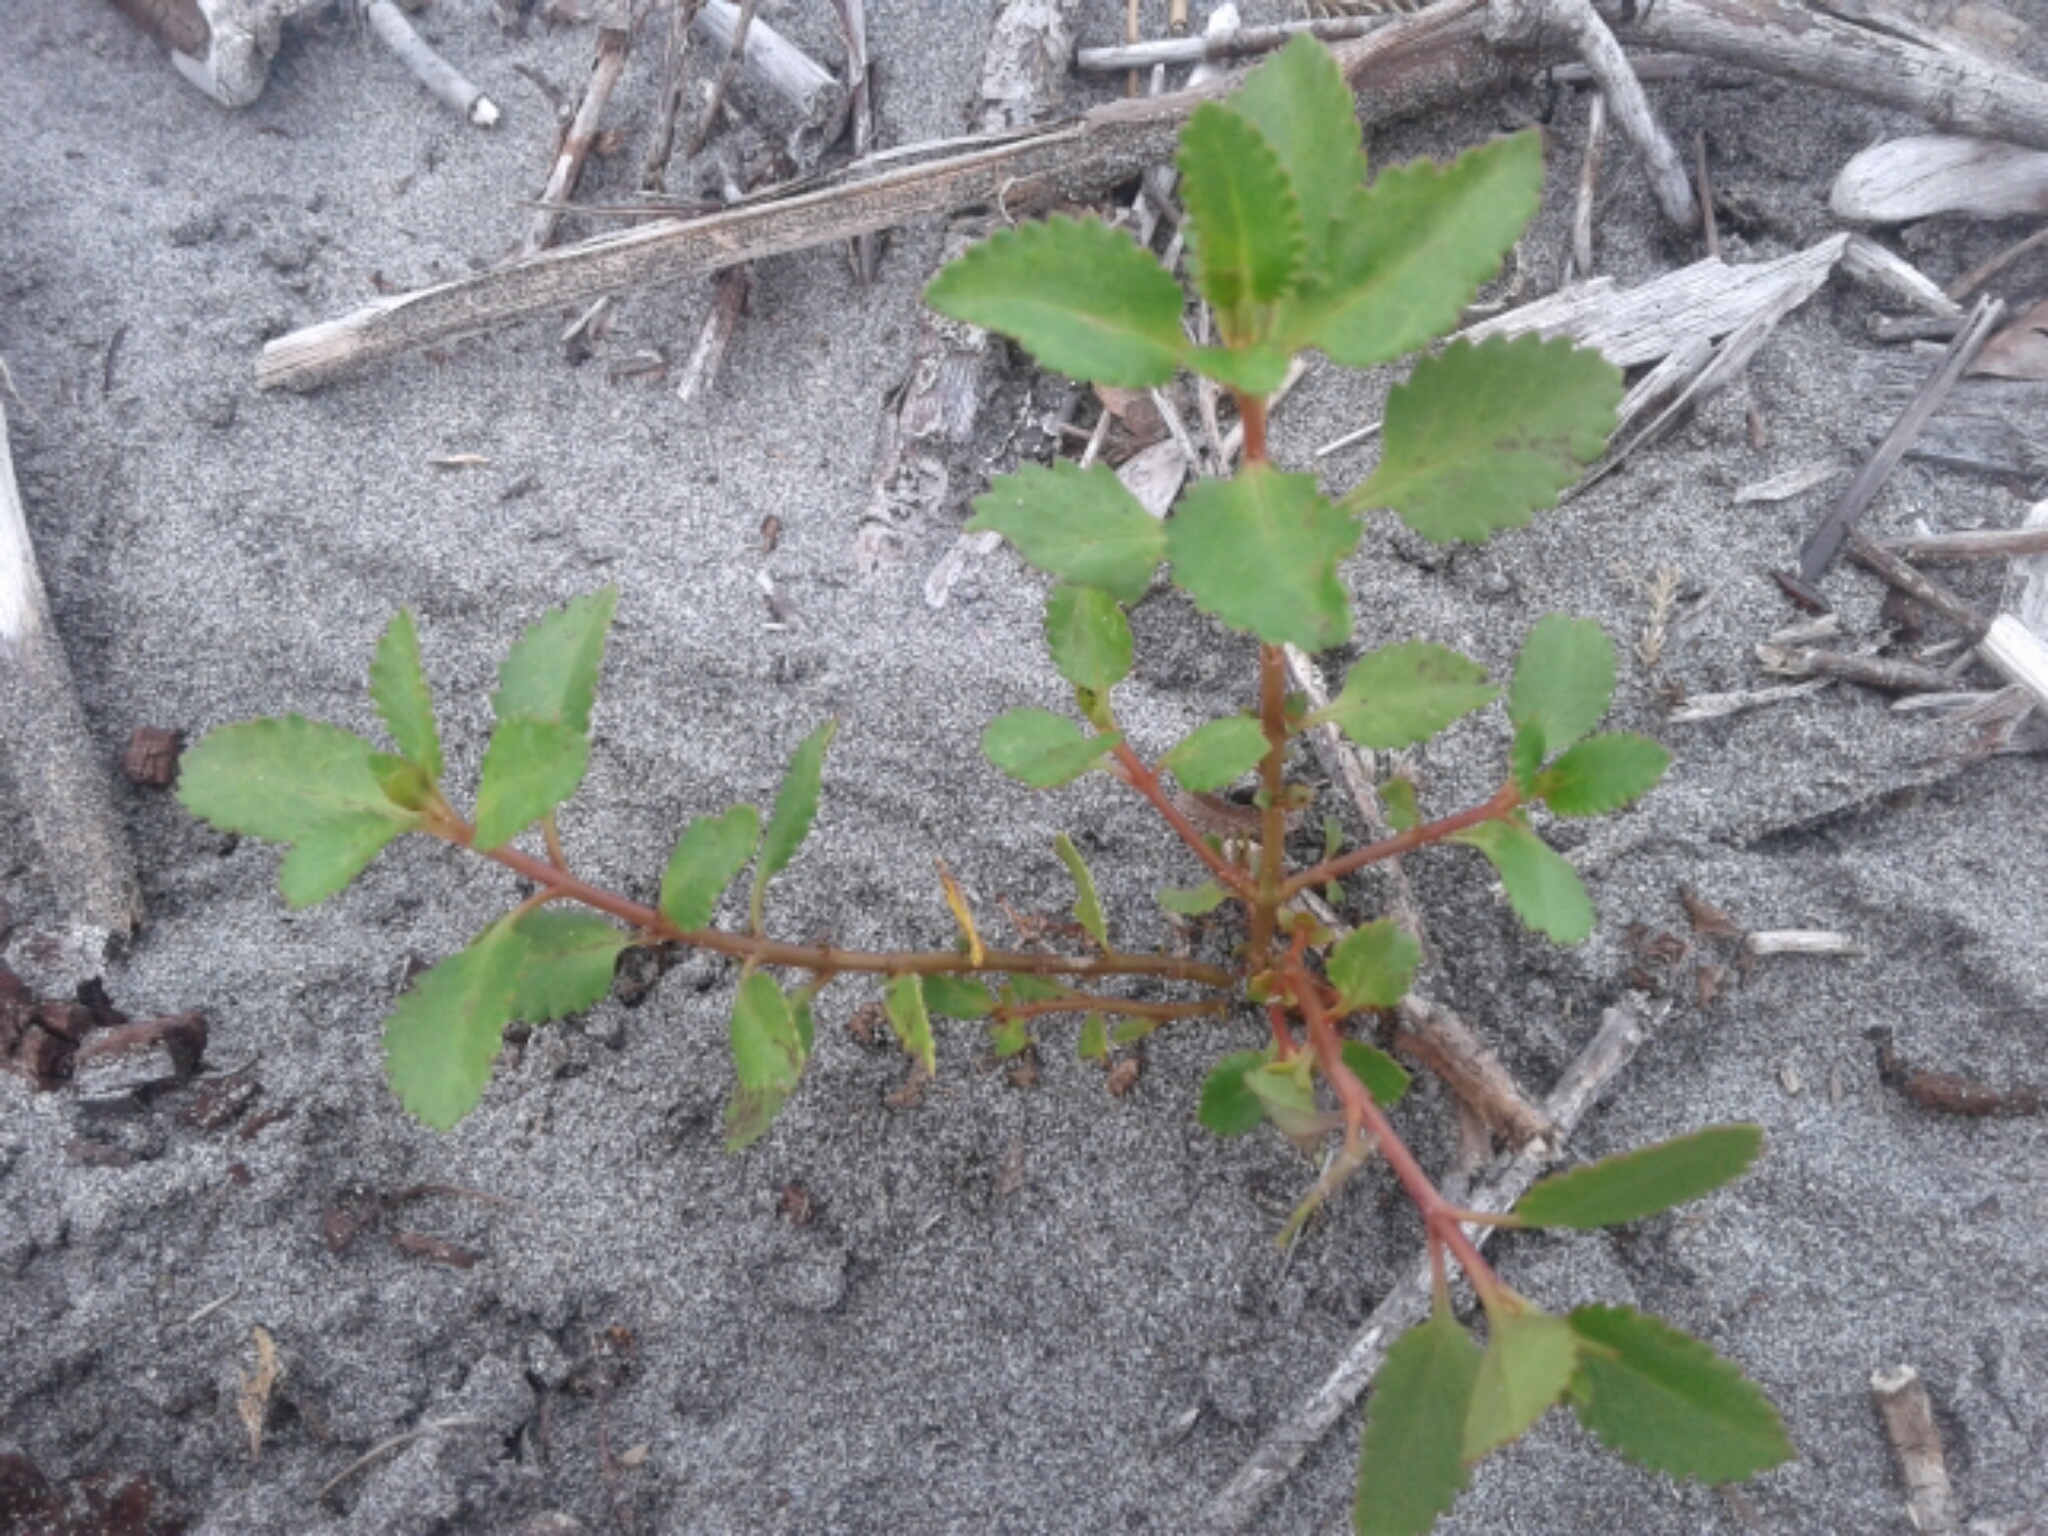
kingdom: Plantae
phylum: Tracheophyta
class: Magnoliopsida
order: Saxifragales
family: Haloragaceae
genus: Haloragis
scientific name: Haloragis erecta
